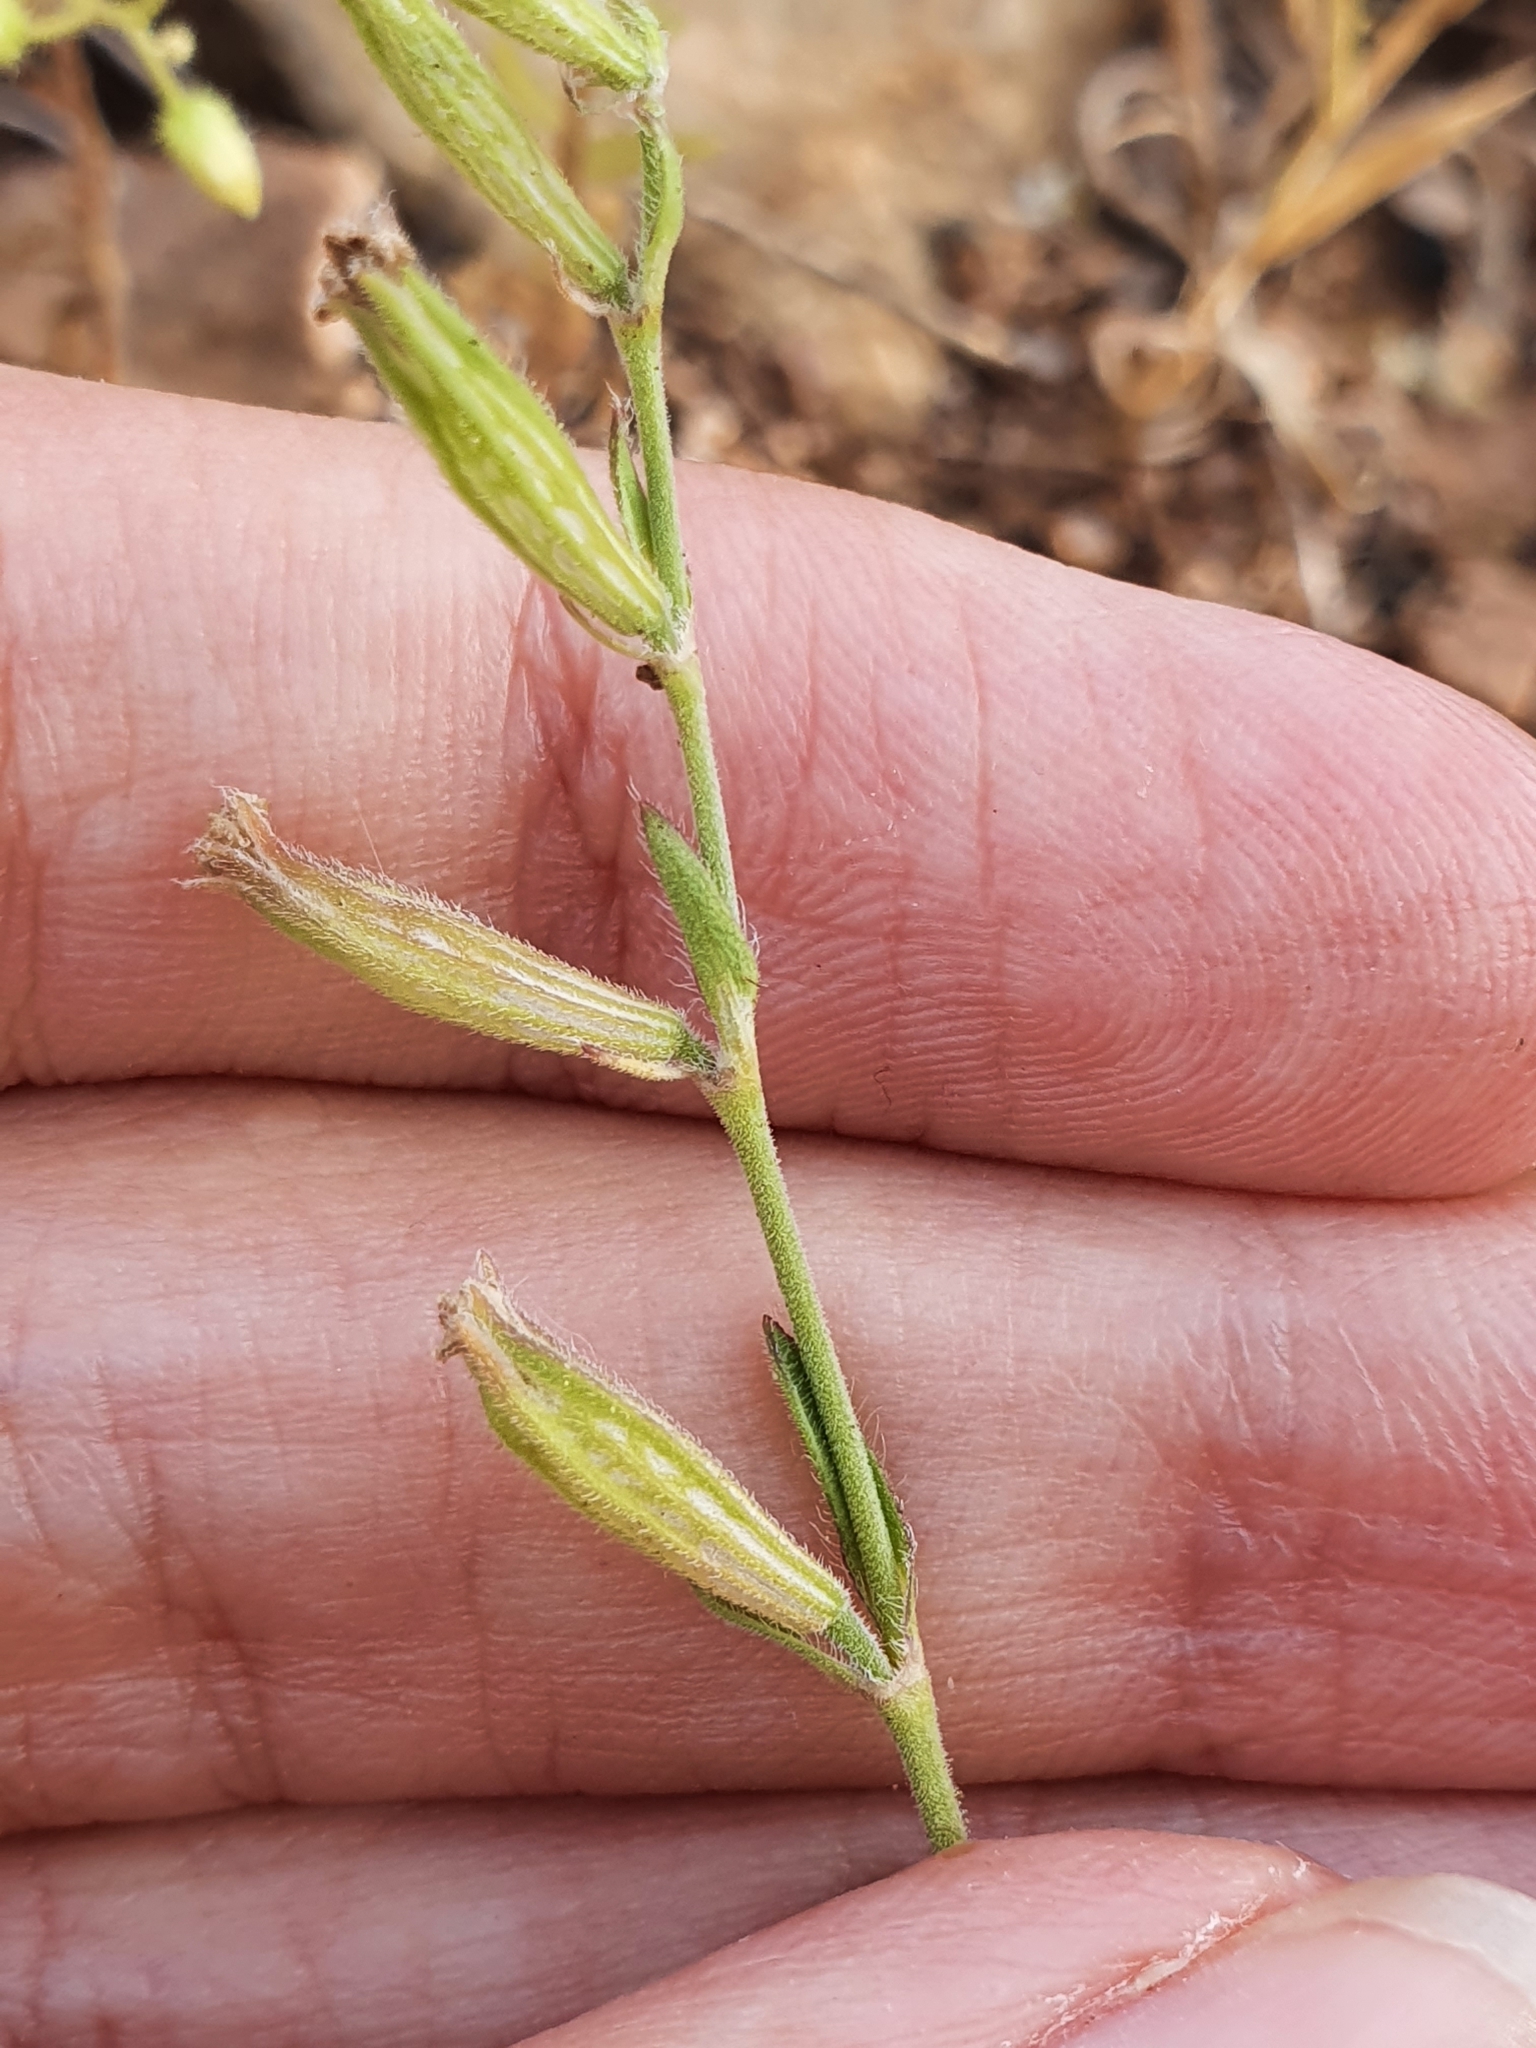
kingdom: Plantae
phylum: Tracheophyta
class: Magnoliopsida
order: Caryophyllales
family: Caryophyllaceae
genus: Silene
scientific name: Silene cirtensis
